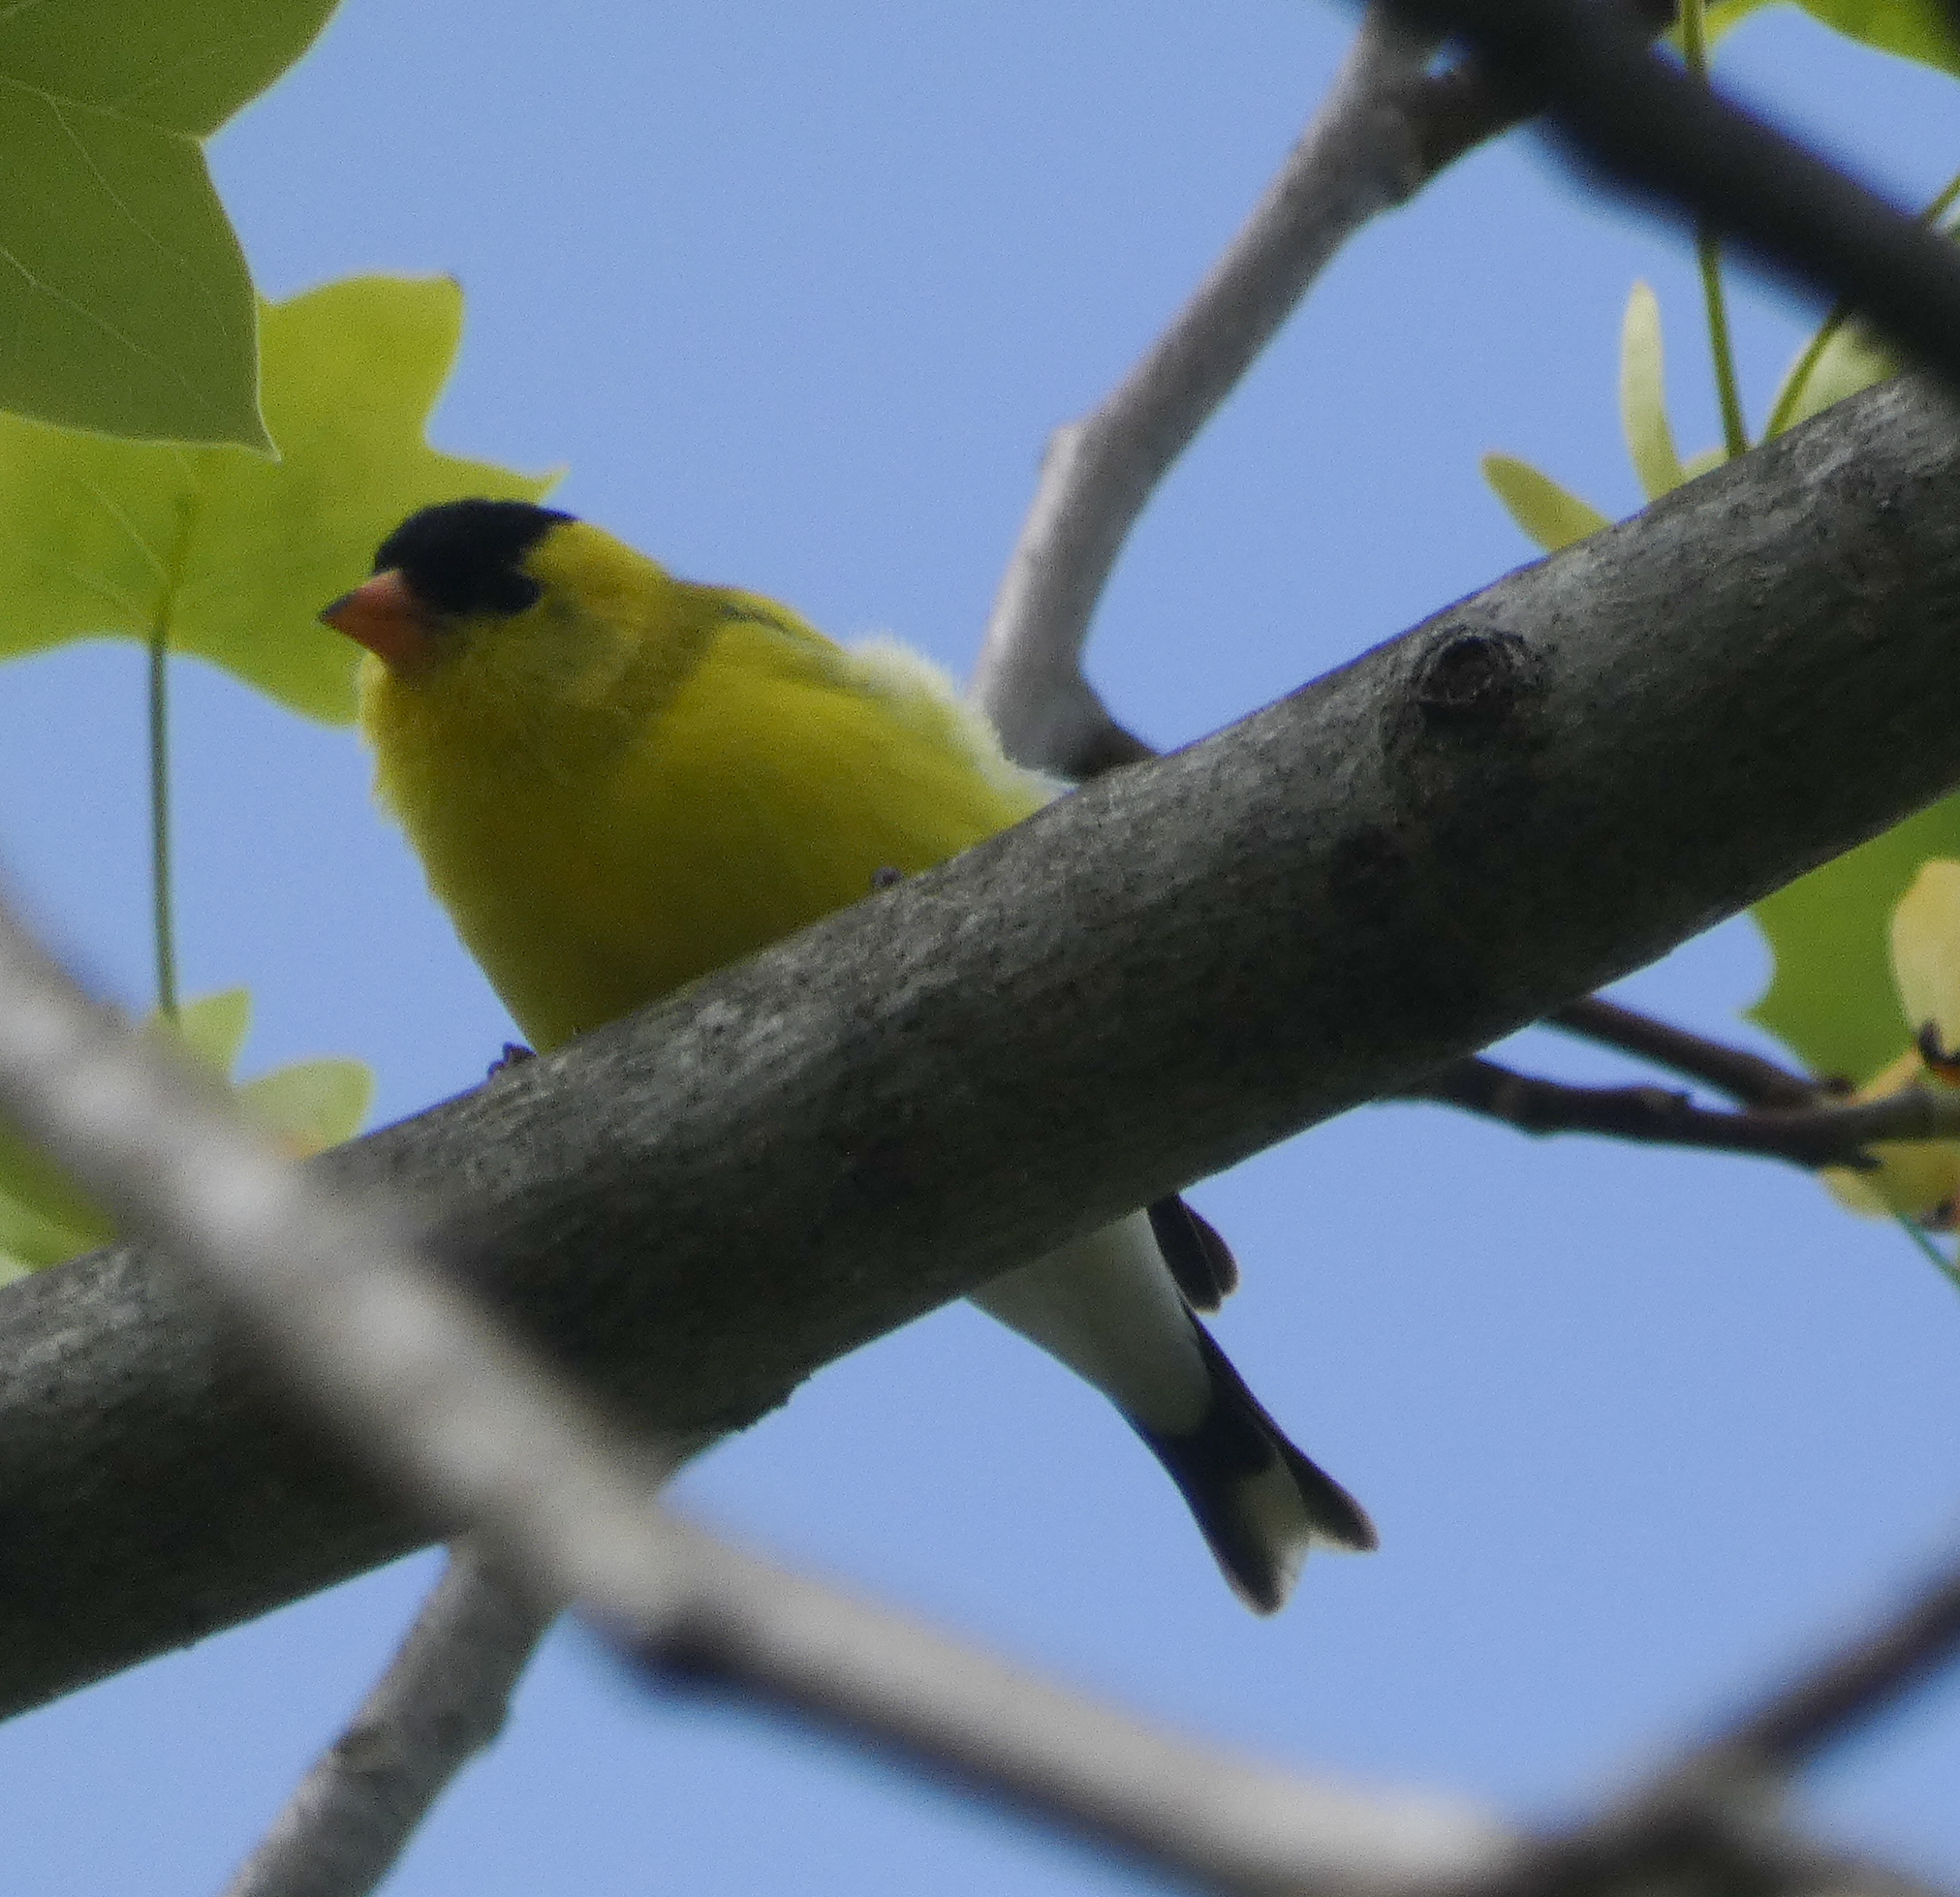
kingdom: Animalia
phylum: Chordata
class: Aves
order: Passeriformes
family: Fringillidae
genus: Spinus
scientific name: Spinus tristis
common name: American goldfinch
